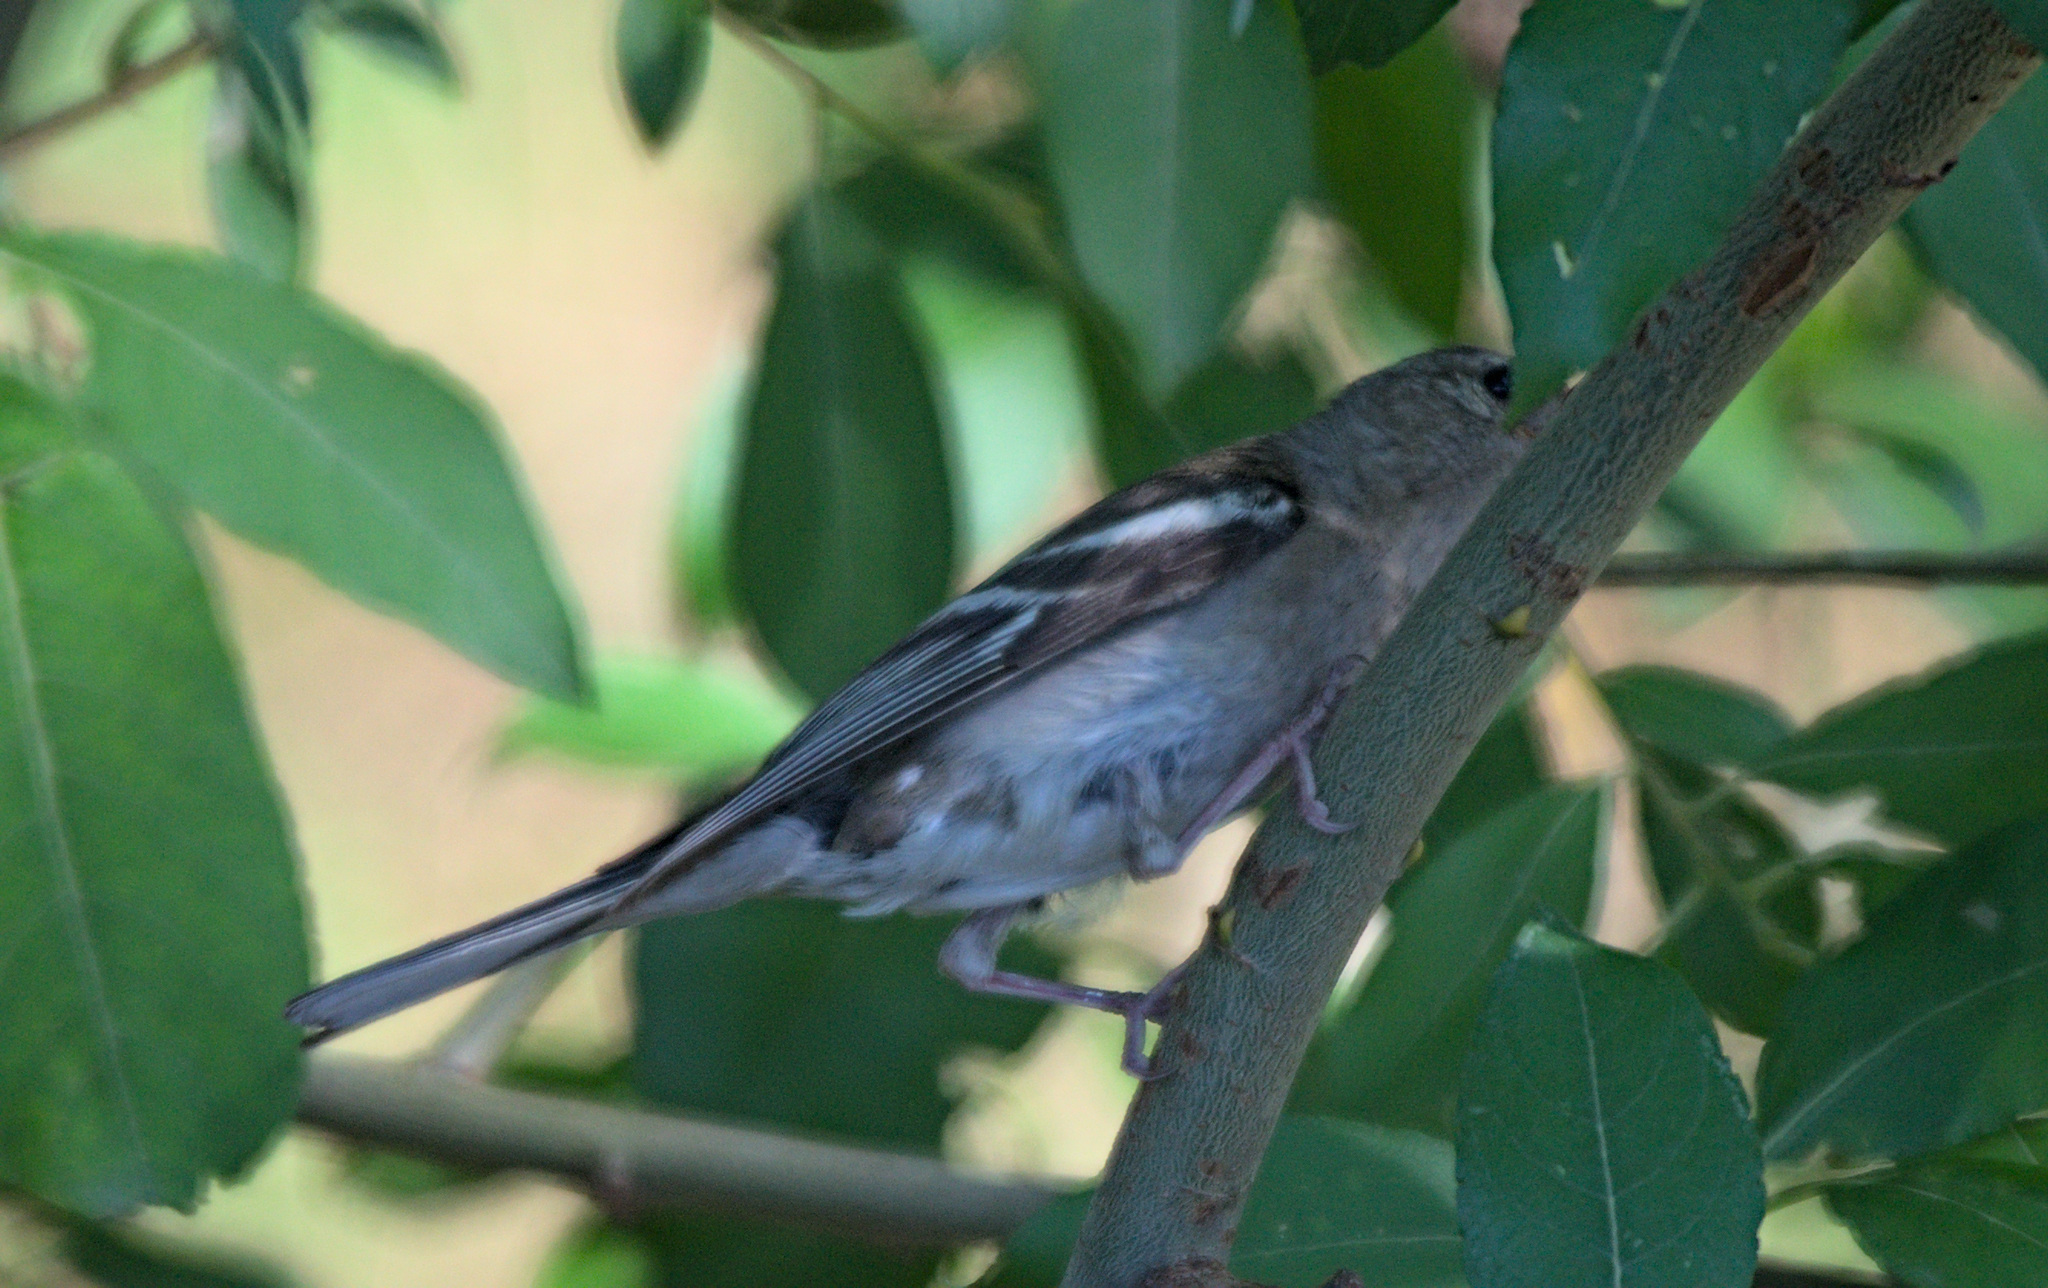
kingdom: Animalia
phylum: Chordata
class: Aves
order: Passeriformes
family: Fringillidae
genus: Fringilla
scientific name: Fringilla coelebs
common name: Common chaffinch
